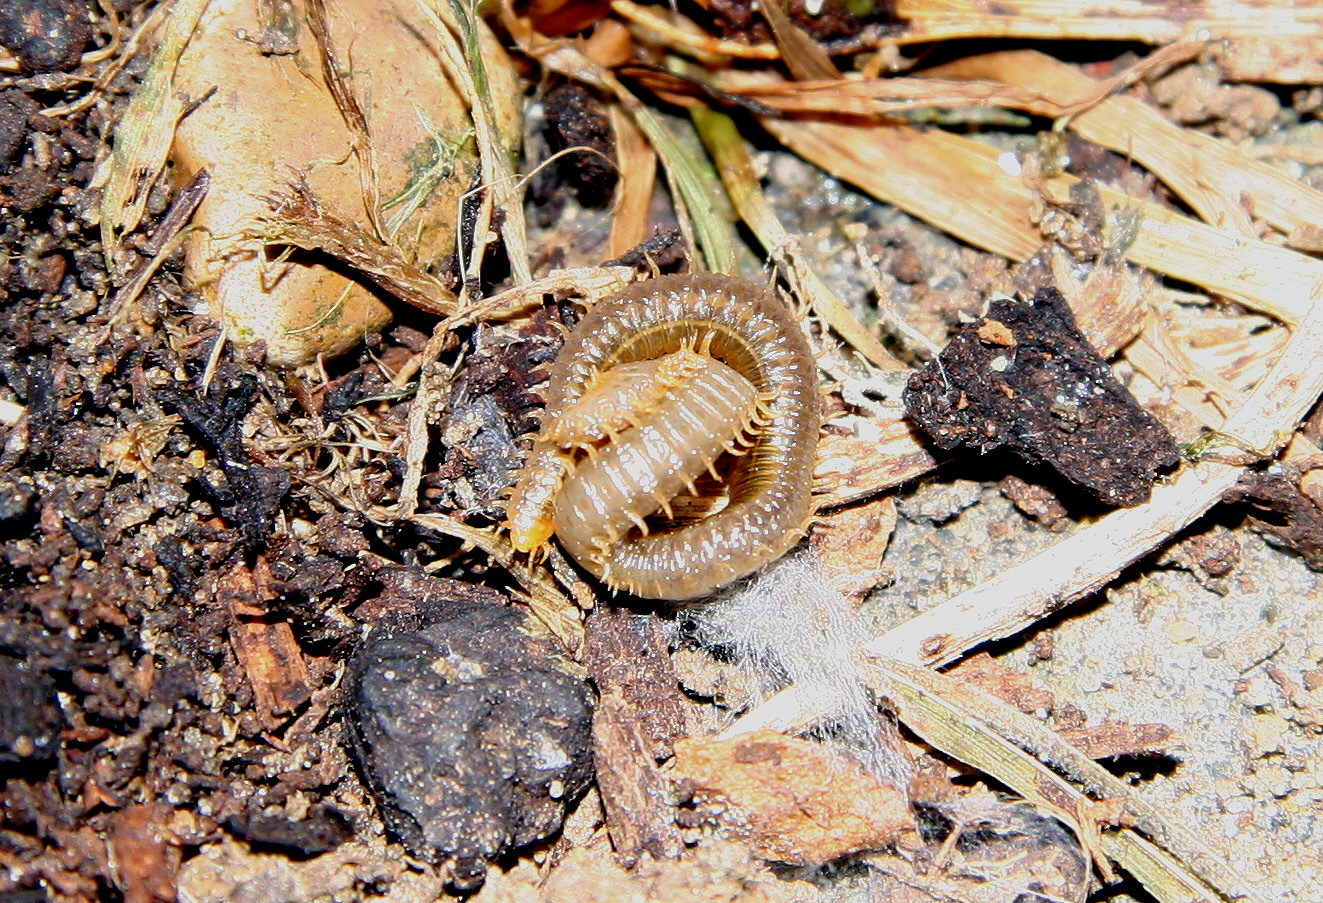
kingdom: Animalia
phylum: Arthropoda
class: Chilopoda
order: Geophilomorpha
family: Dignathodontidae
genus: Henia
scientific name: Henia vesuviana
